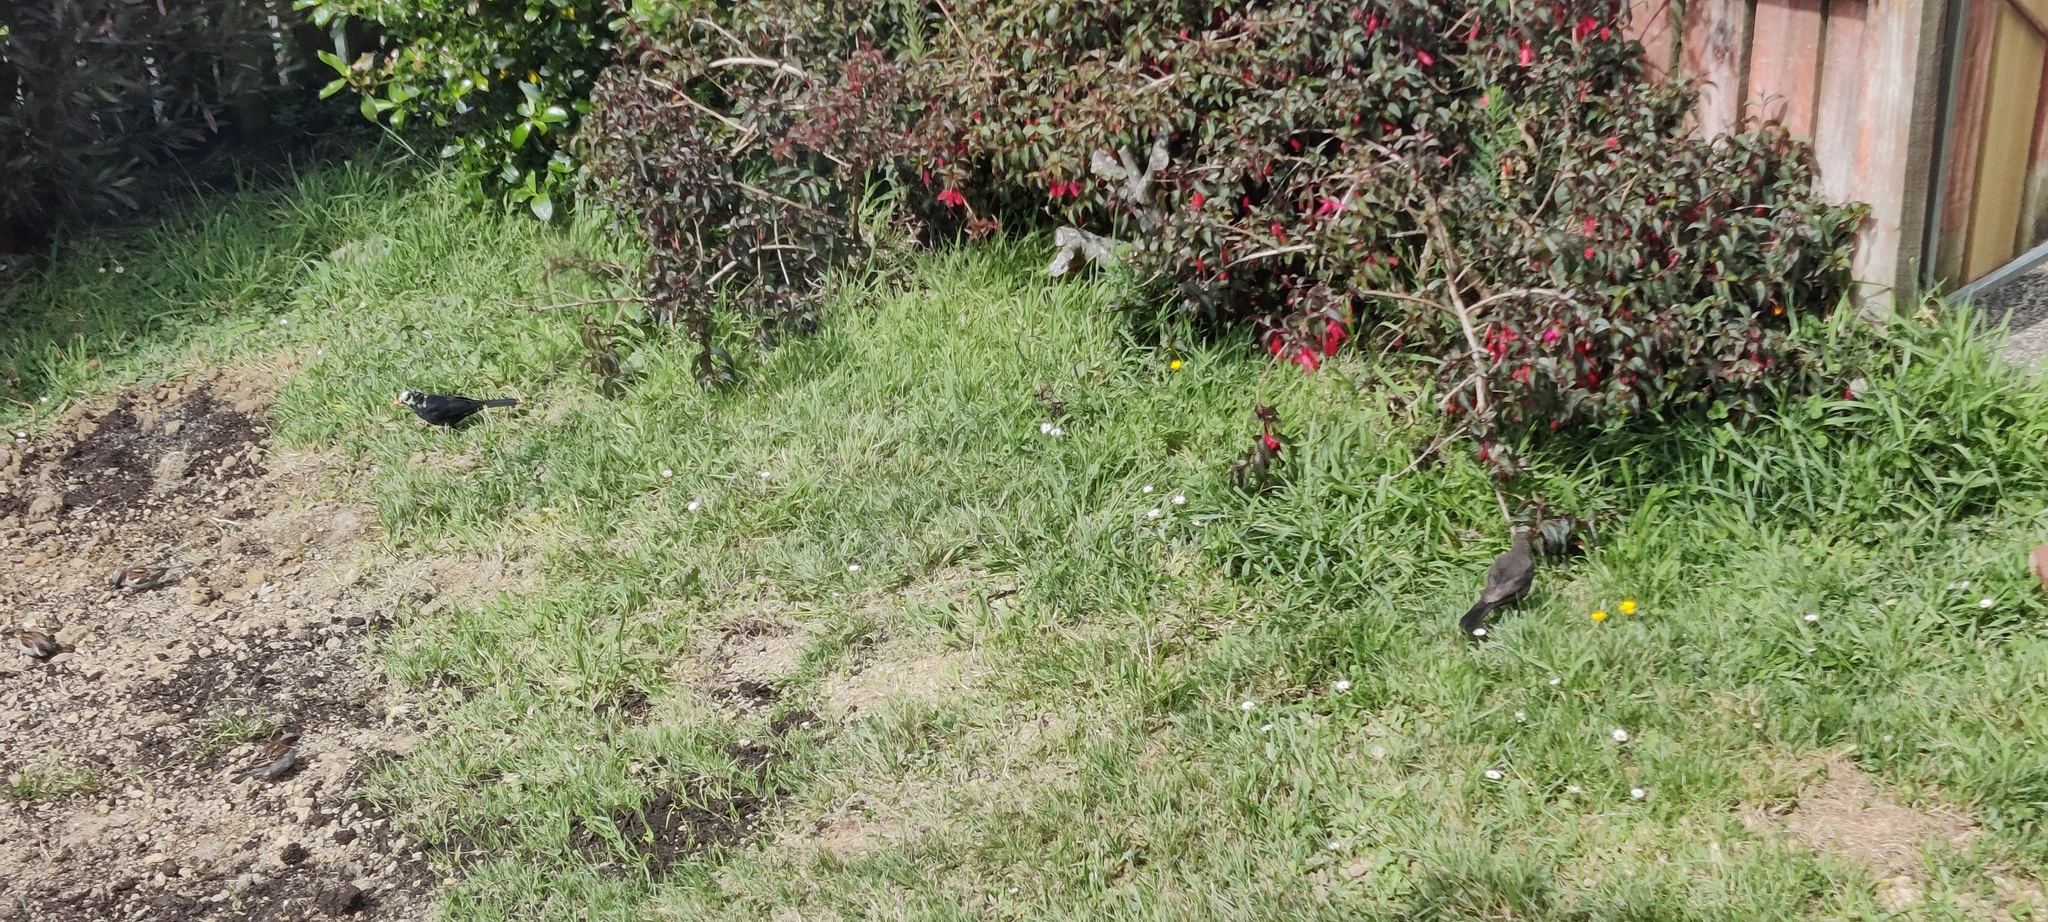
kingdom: Animalia
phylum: Chordata
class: Aves
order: Passeriformes
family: Turdidae
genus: Turdus
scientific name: Turdus merula
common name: Common blackbird
